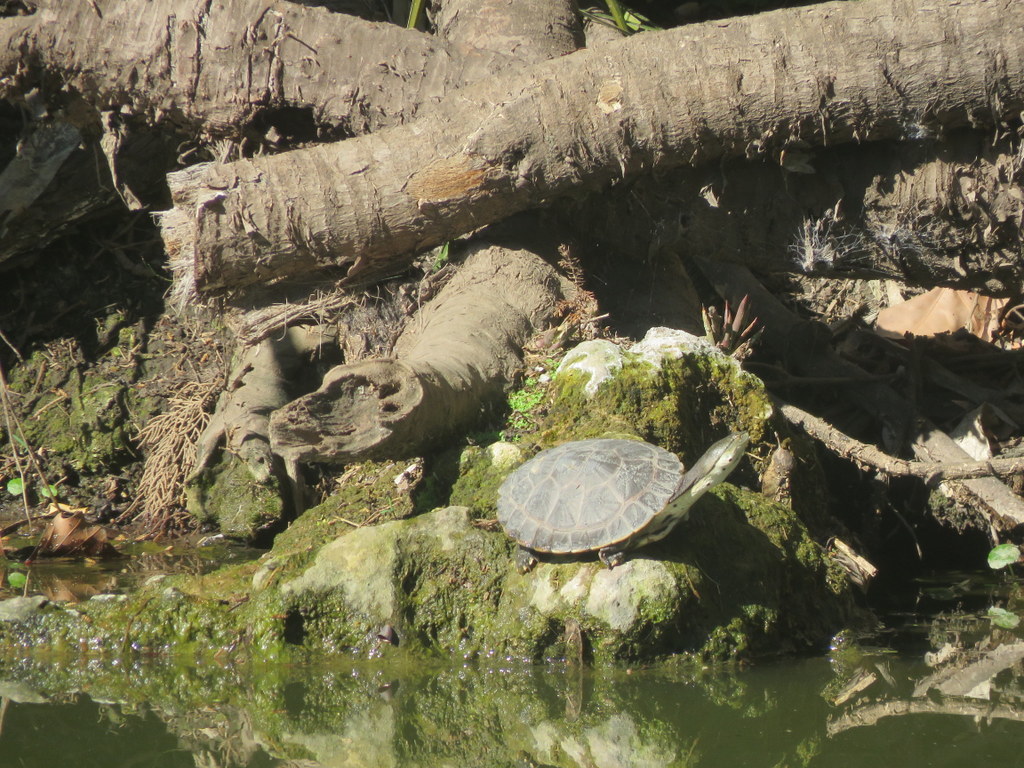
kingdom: Animalia
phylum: Chordata
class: Testudines
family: Chelidae
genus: Phrynops
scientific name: Phrynops hilarii
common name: Side-necked turtle of saint hillaire
